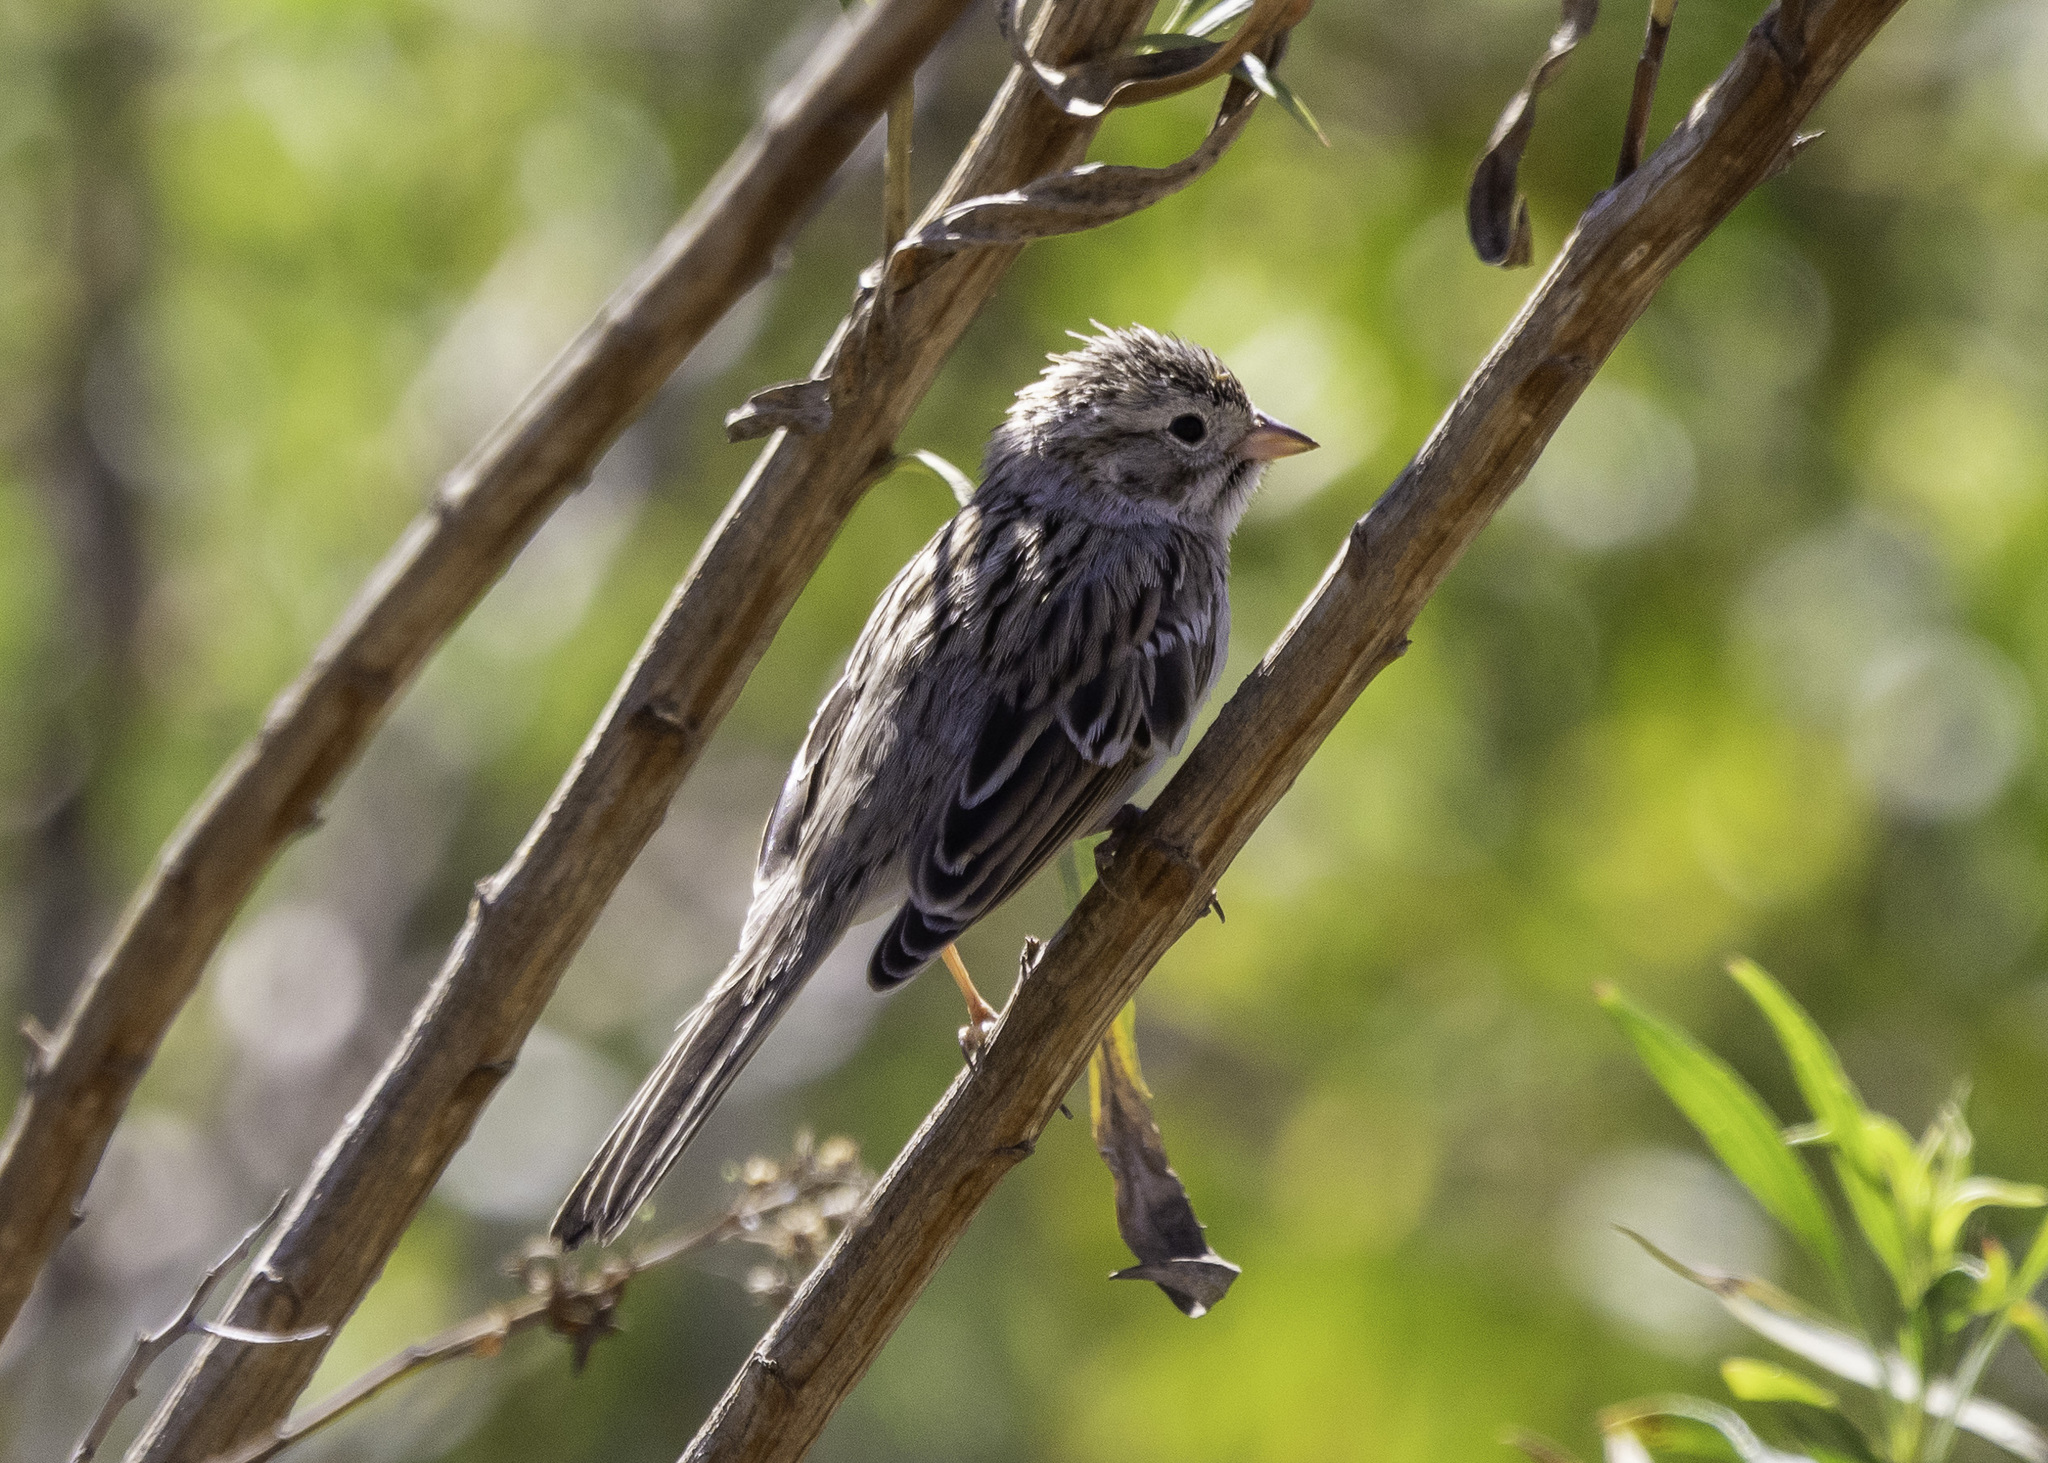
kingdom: Animalia
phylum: Chordata
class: Aves
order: Passeriformes
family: Passerellidae
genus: Spizella
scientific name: Spizella breweri
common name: Brewer's sparrow
